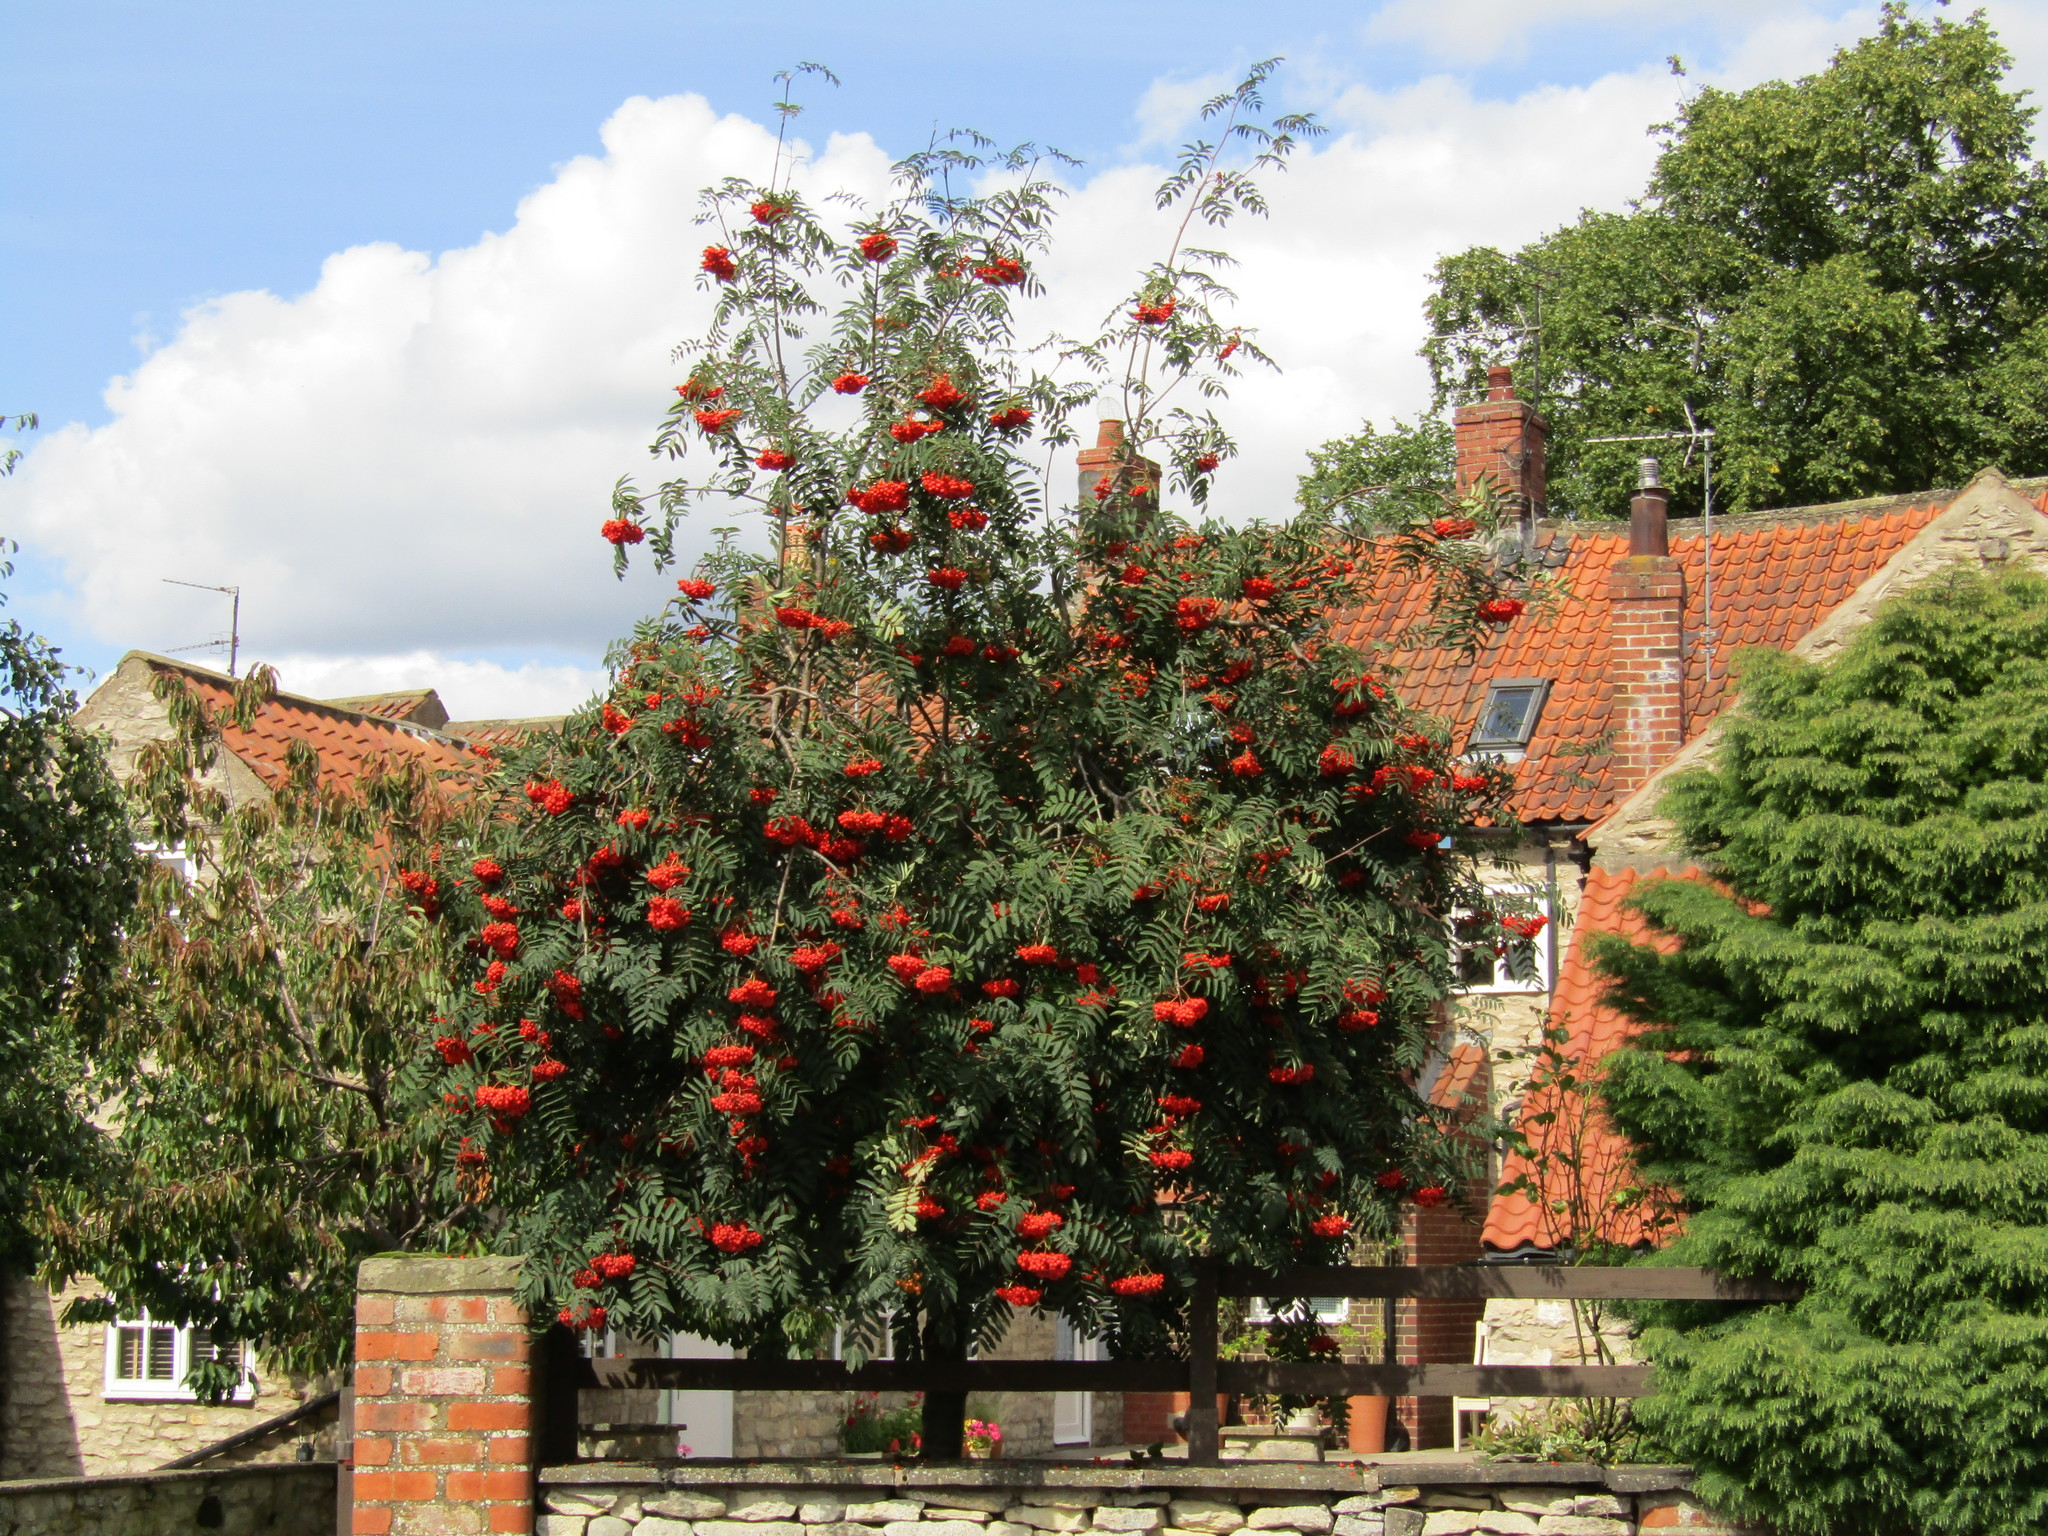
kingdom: Plantae
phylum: Tracheophyta
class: Magnoliopsida
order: Rosales
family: Rosaceae
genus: Sorbus
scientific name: Sorbus aucuparia
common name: Rowan
